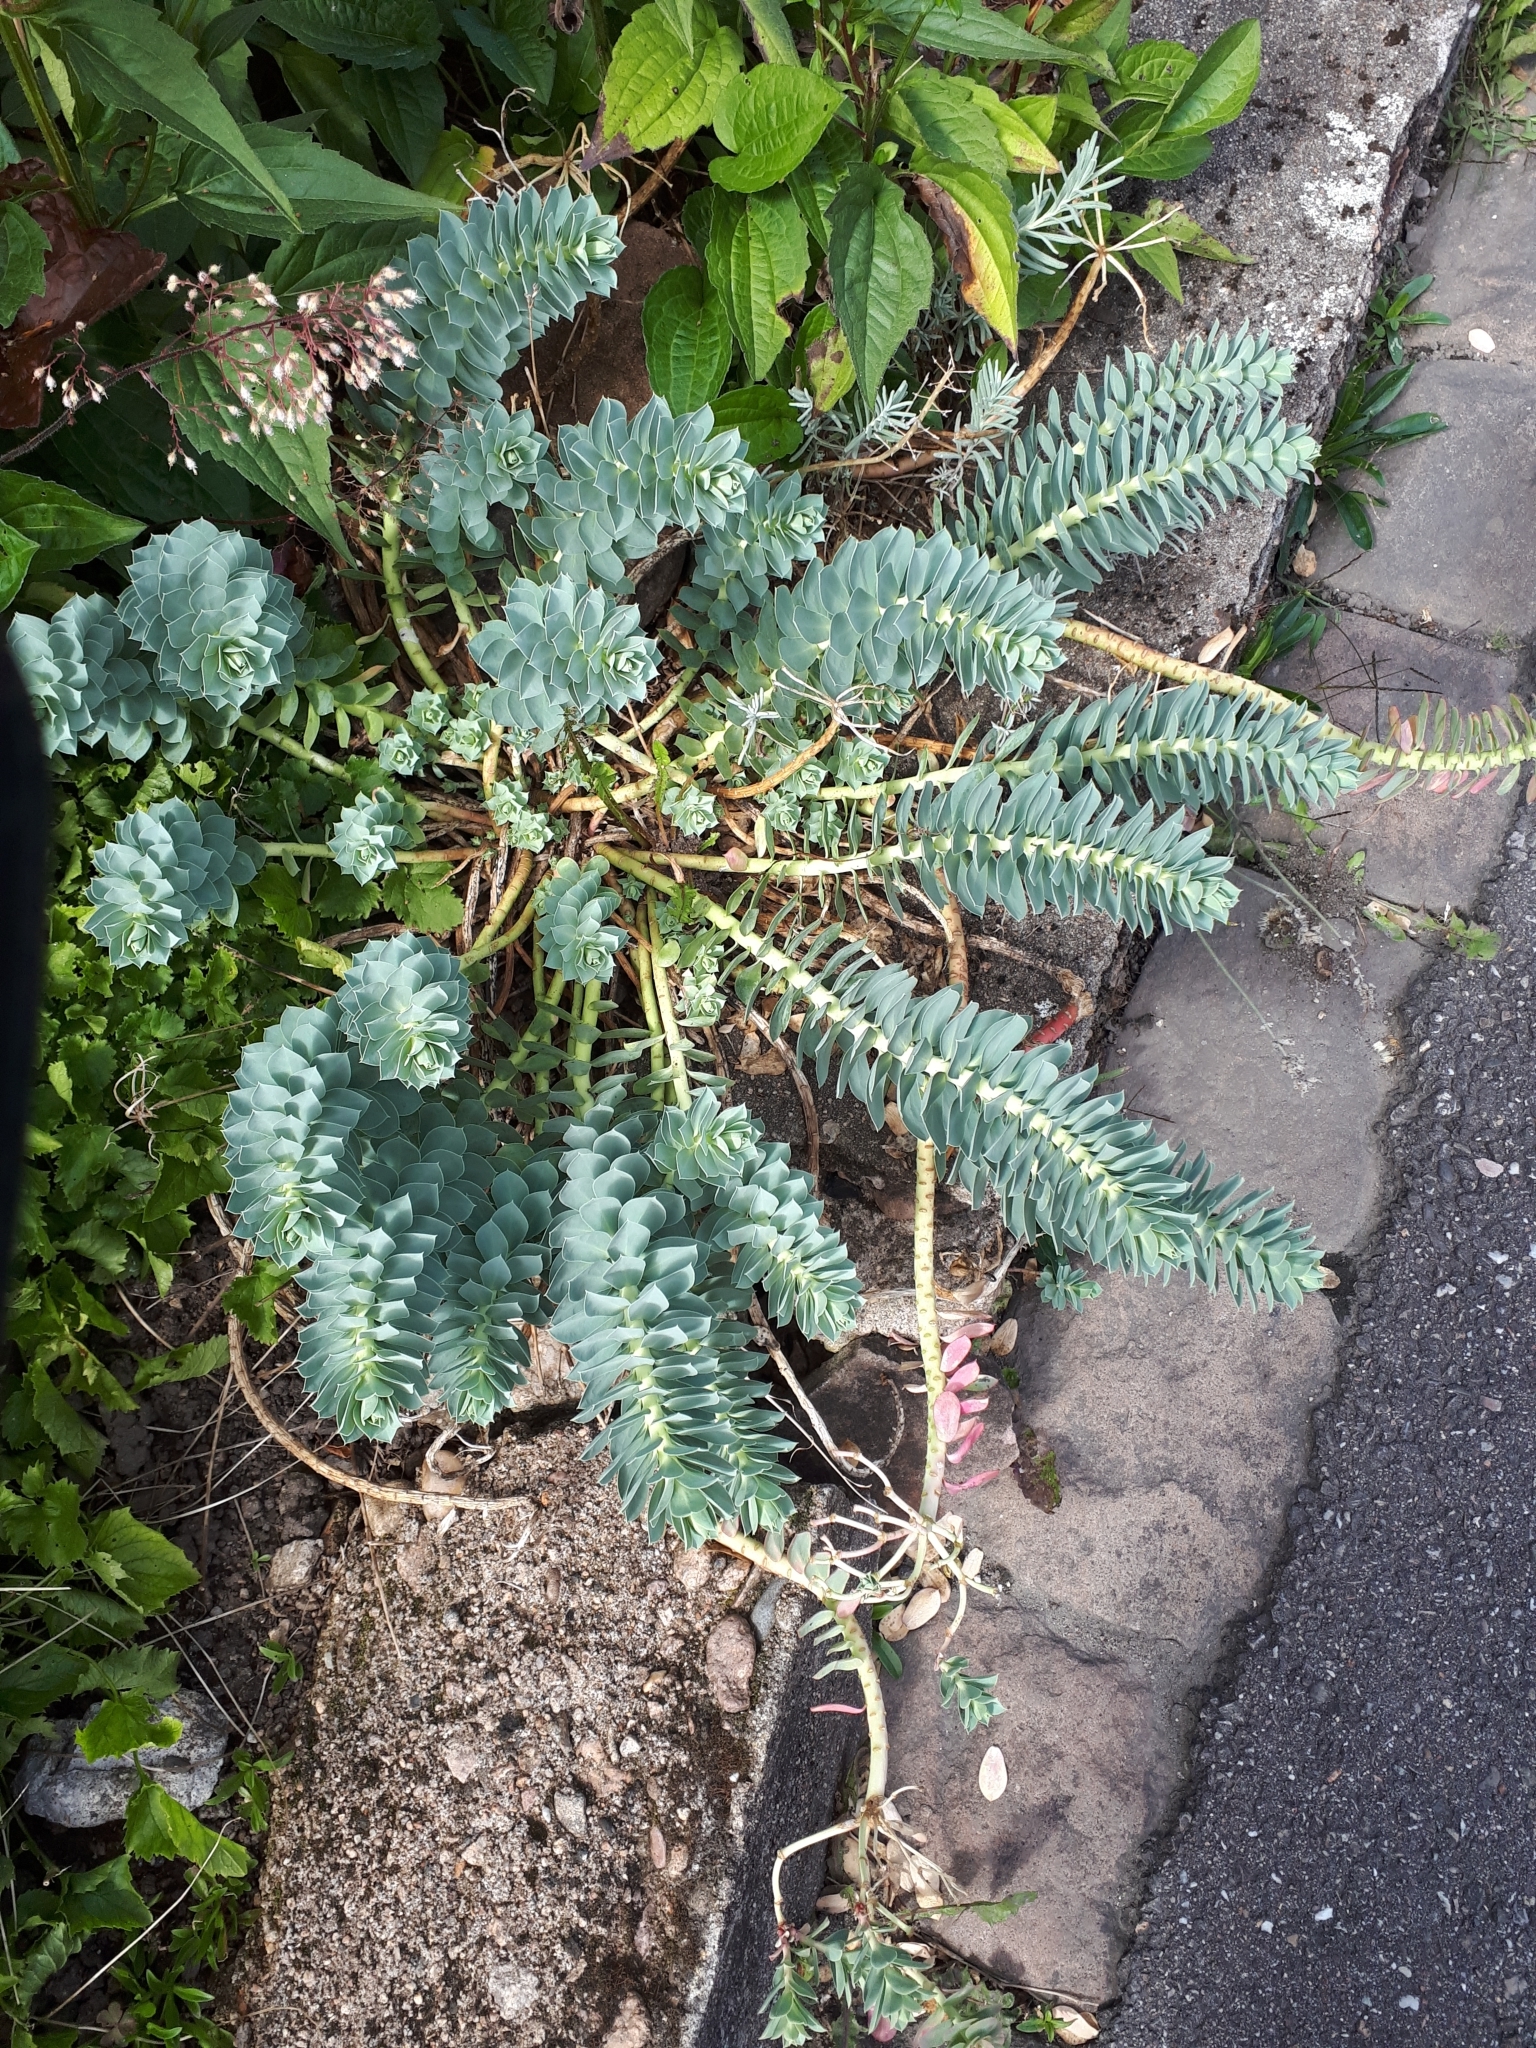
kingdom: Plantae
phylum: Tracheophyta
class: Magnoliopsida
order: Malpighiales
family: Euphorbiaceae
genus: Euphorbia
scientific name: Euphorbia myrsinites
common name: Myrtle spurge
